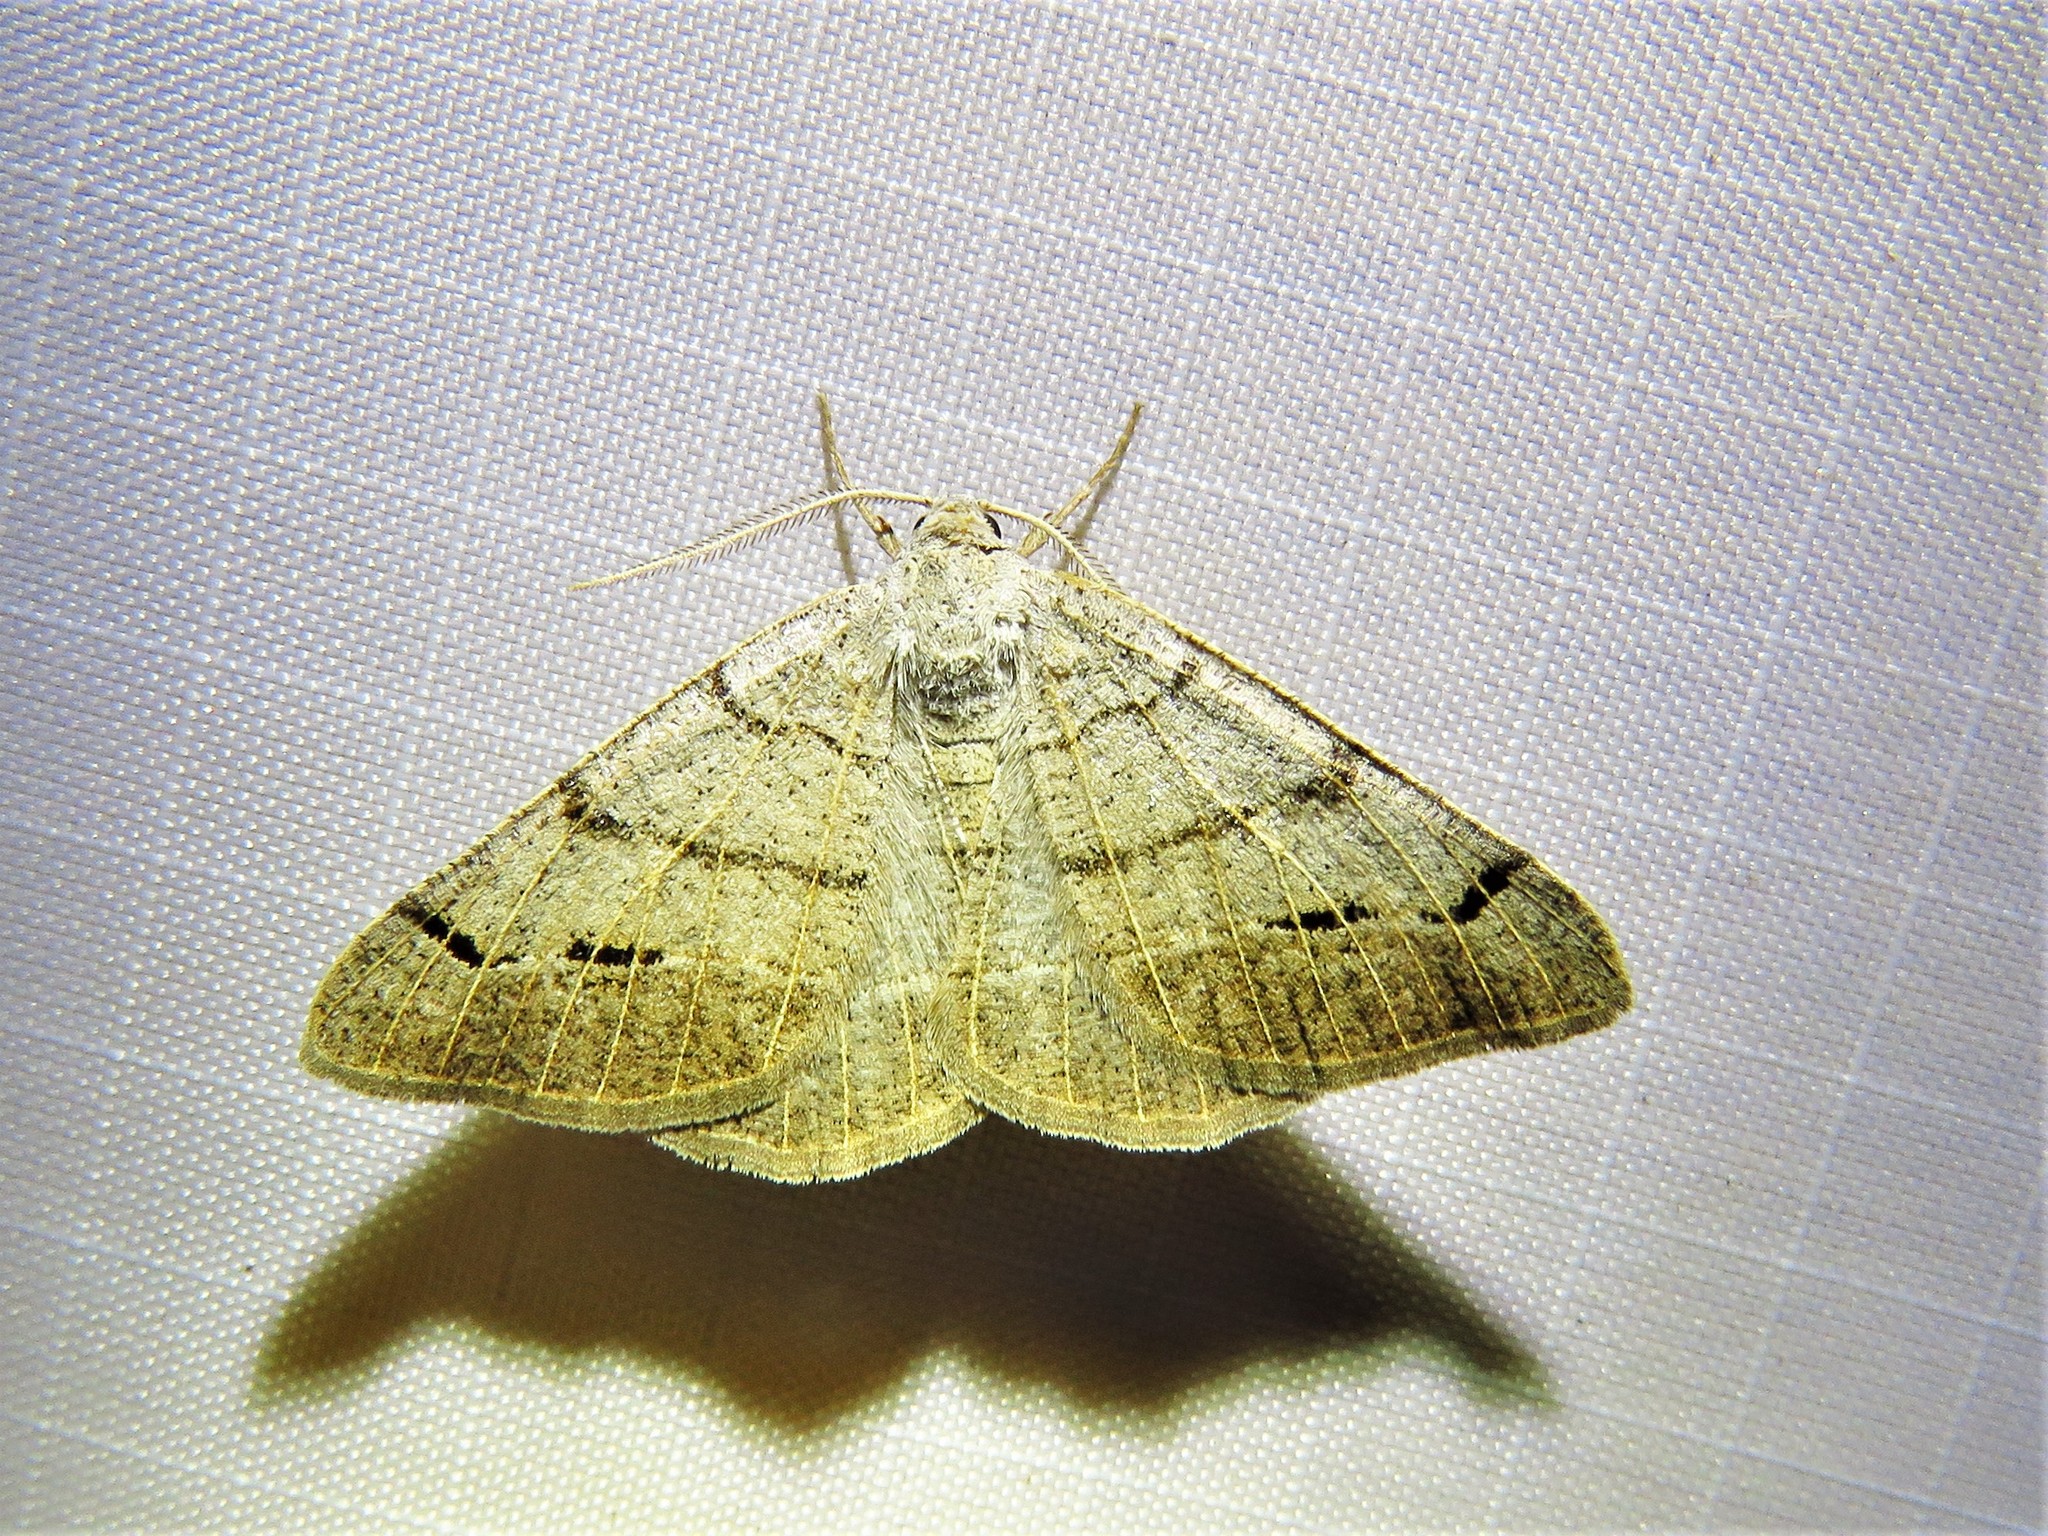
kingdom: Animalia
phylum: Arthropoda
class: Insecta
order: Lepidoptera
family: Geometridae
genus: Isturgia
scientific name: Isturgia dislocaria
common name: Pale-viened enconista
